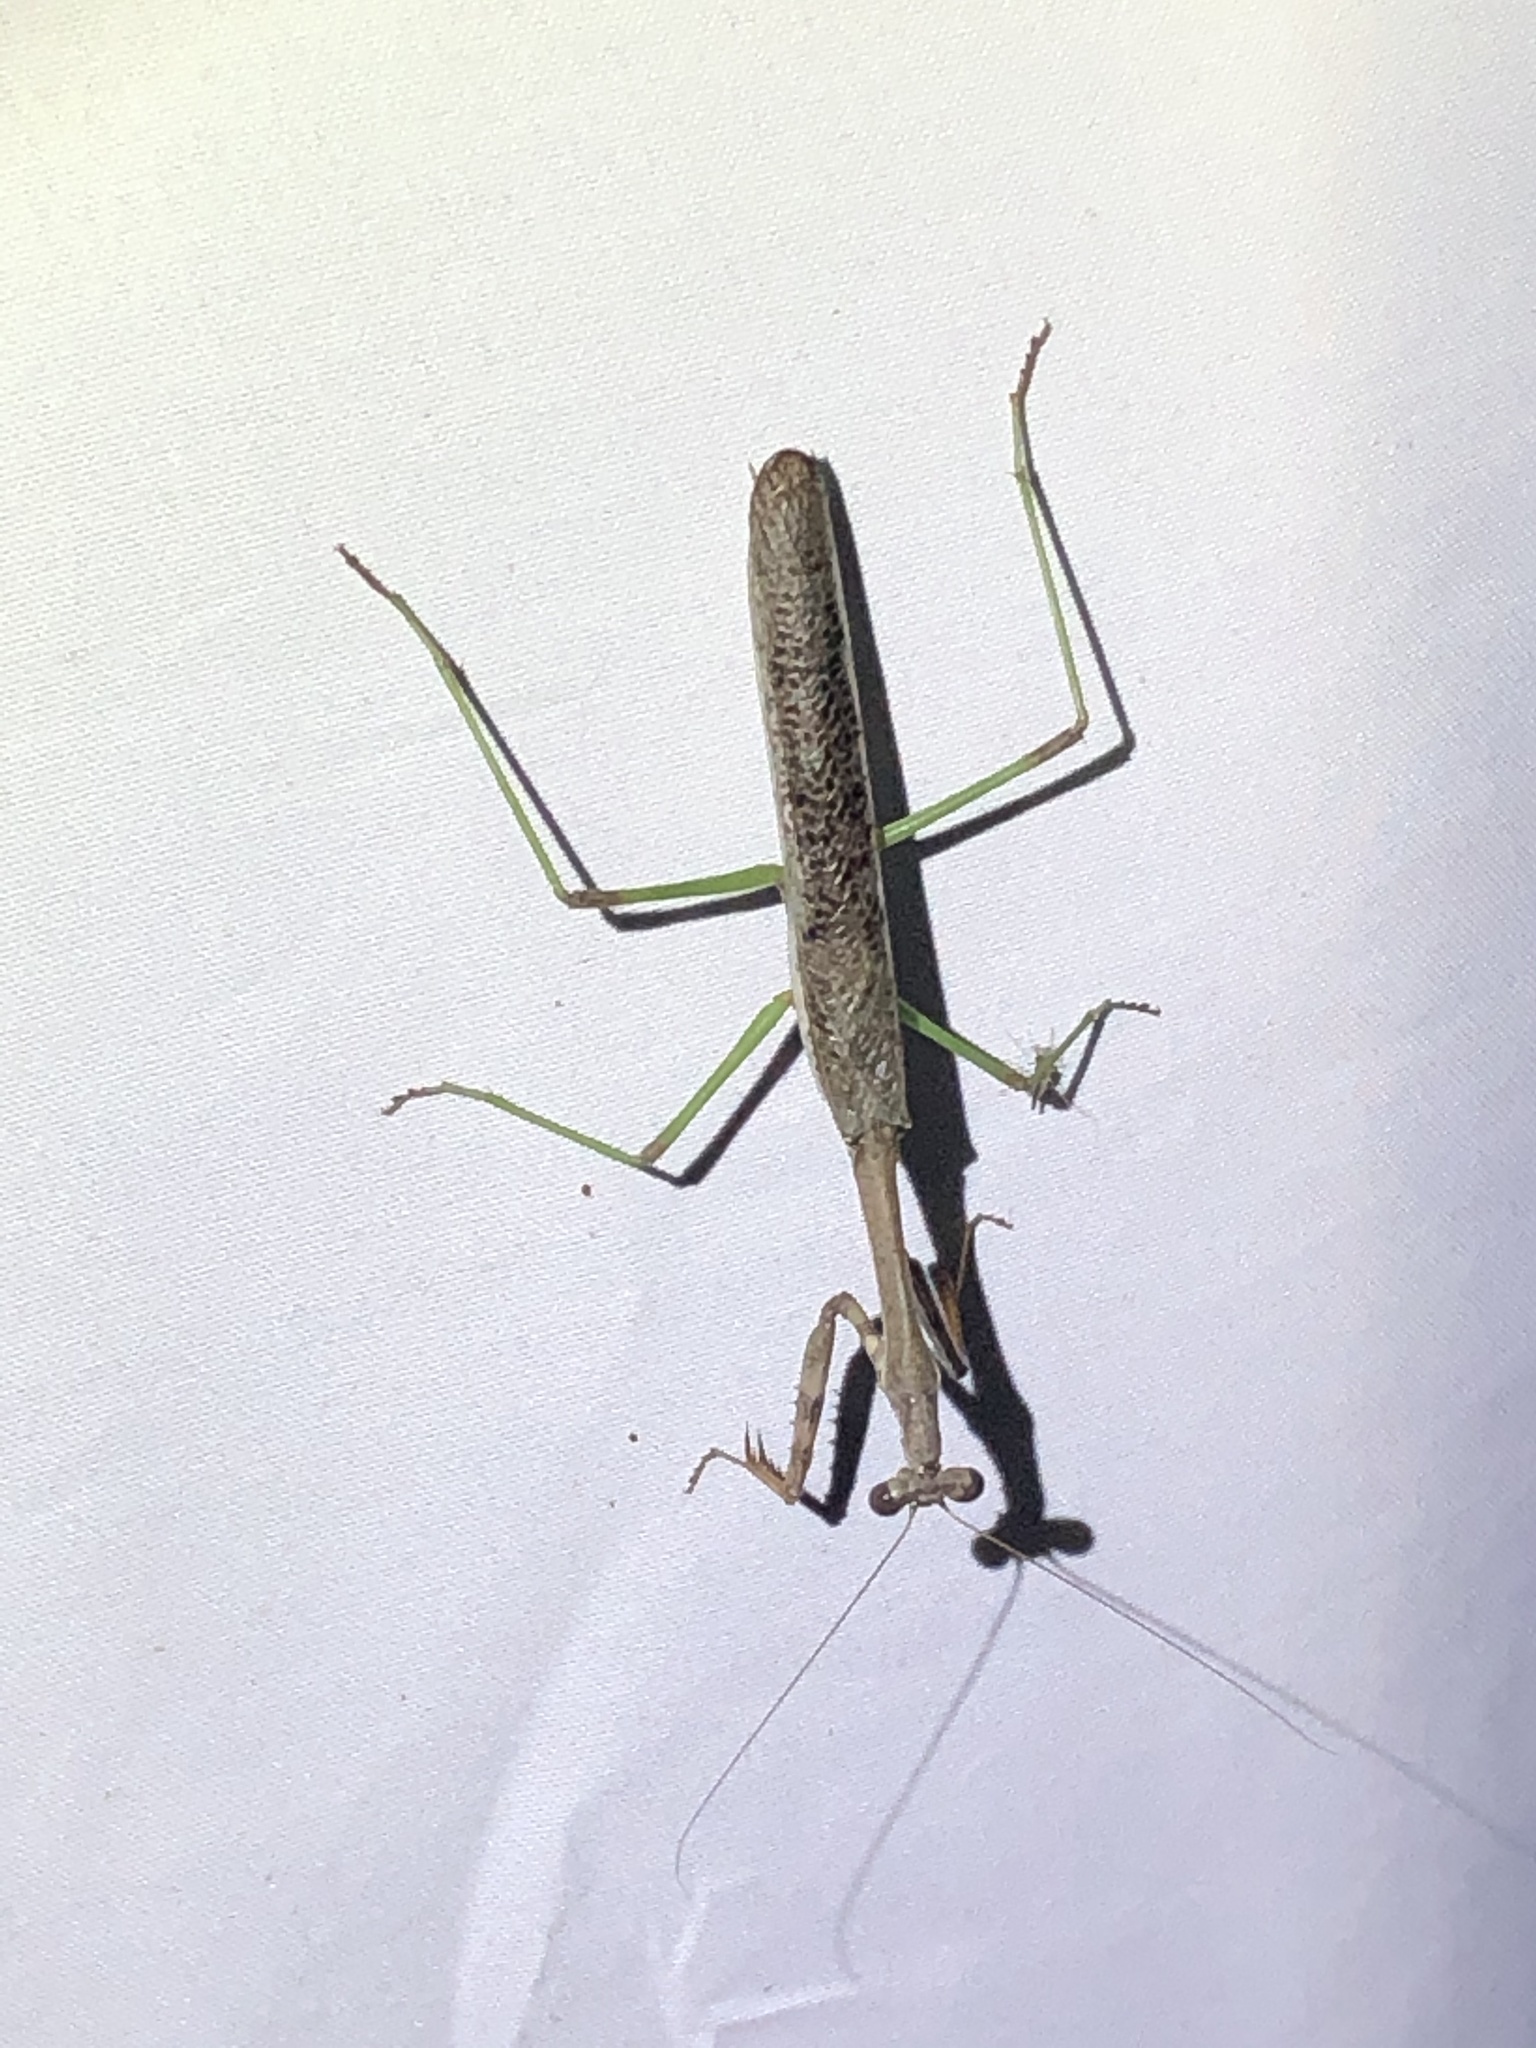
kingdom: Animalia
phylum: Arthropoda
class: Insecta
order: Mantodea
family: Mantidae
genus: Stagmomantis
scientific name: Stagmomantis resacae
